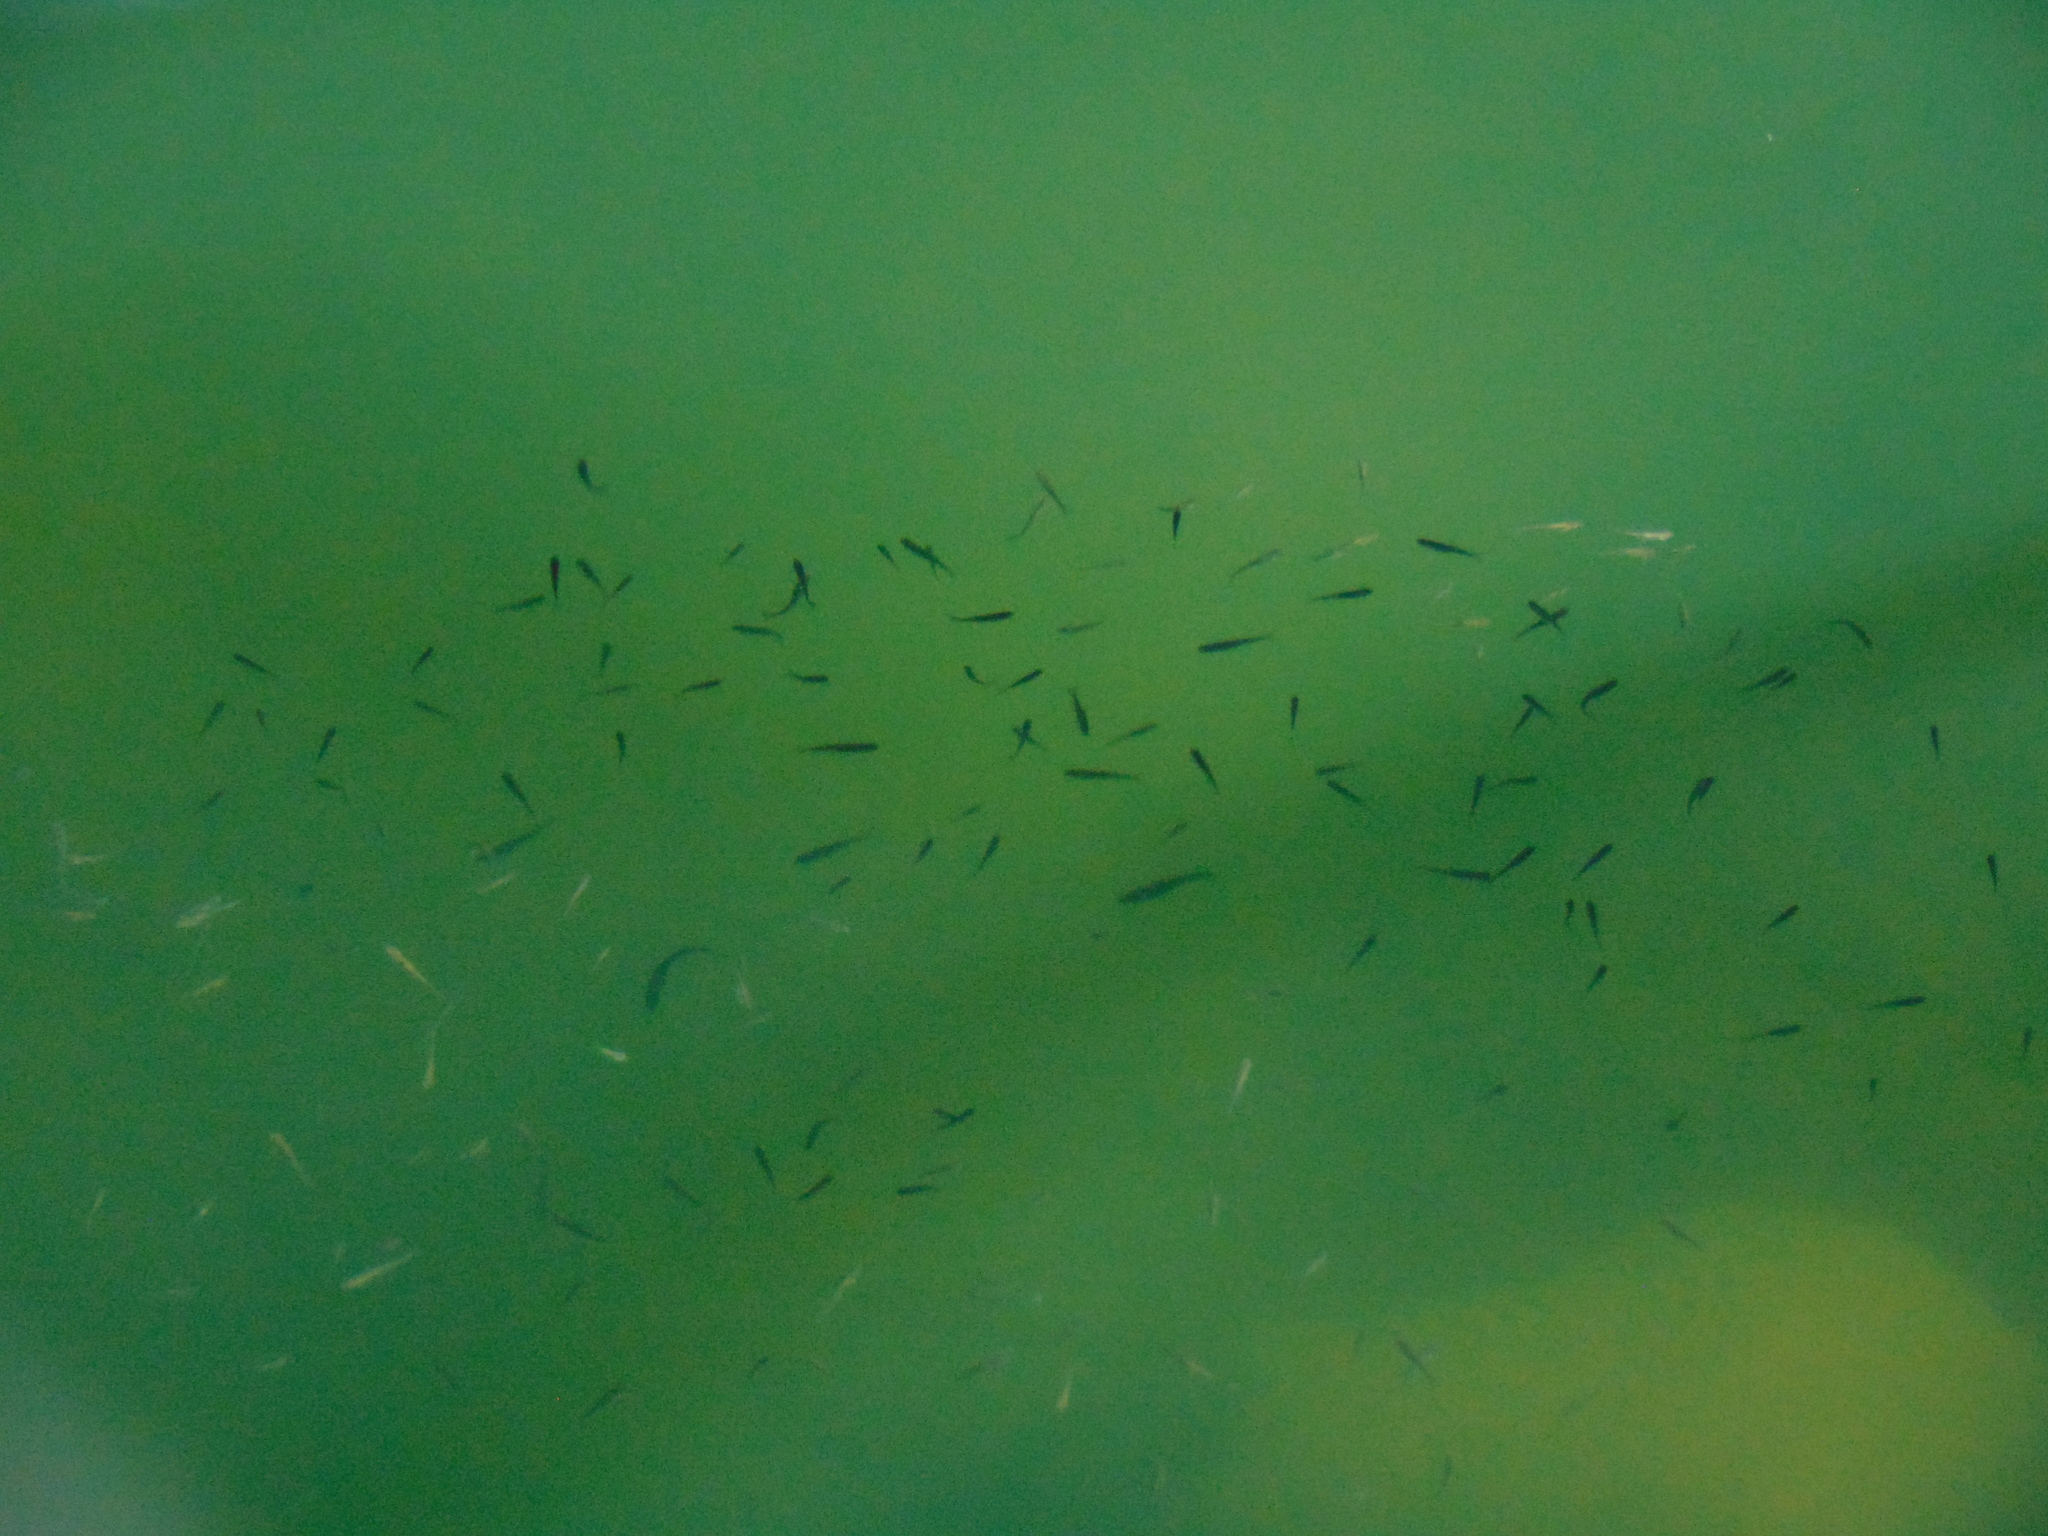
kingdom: Animalia
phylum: Chordata
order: Cypriniformes
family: Cyprinidae
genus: Pimephales
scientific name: Pimephales promelas
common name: Fathead minnow
